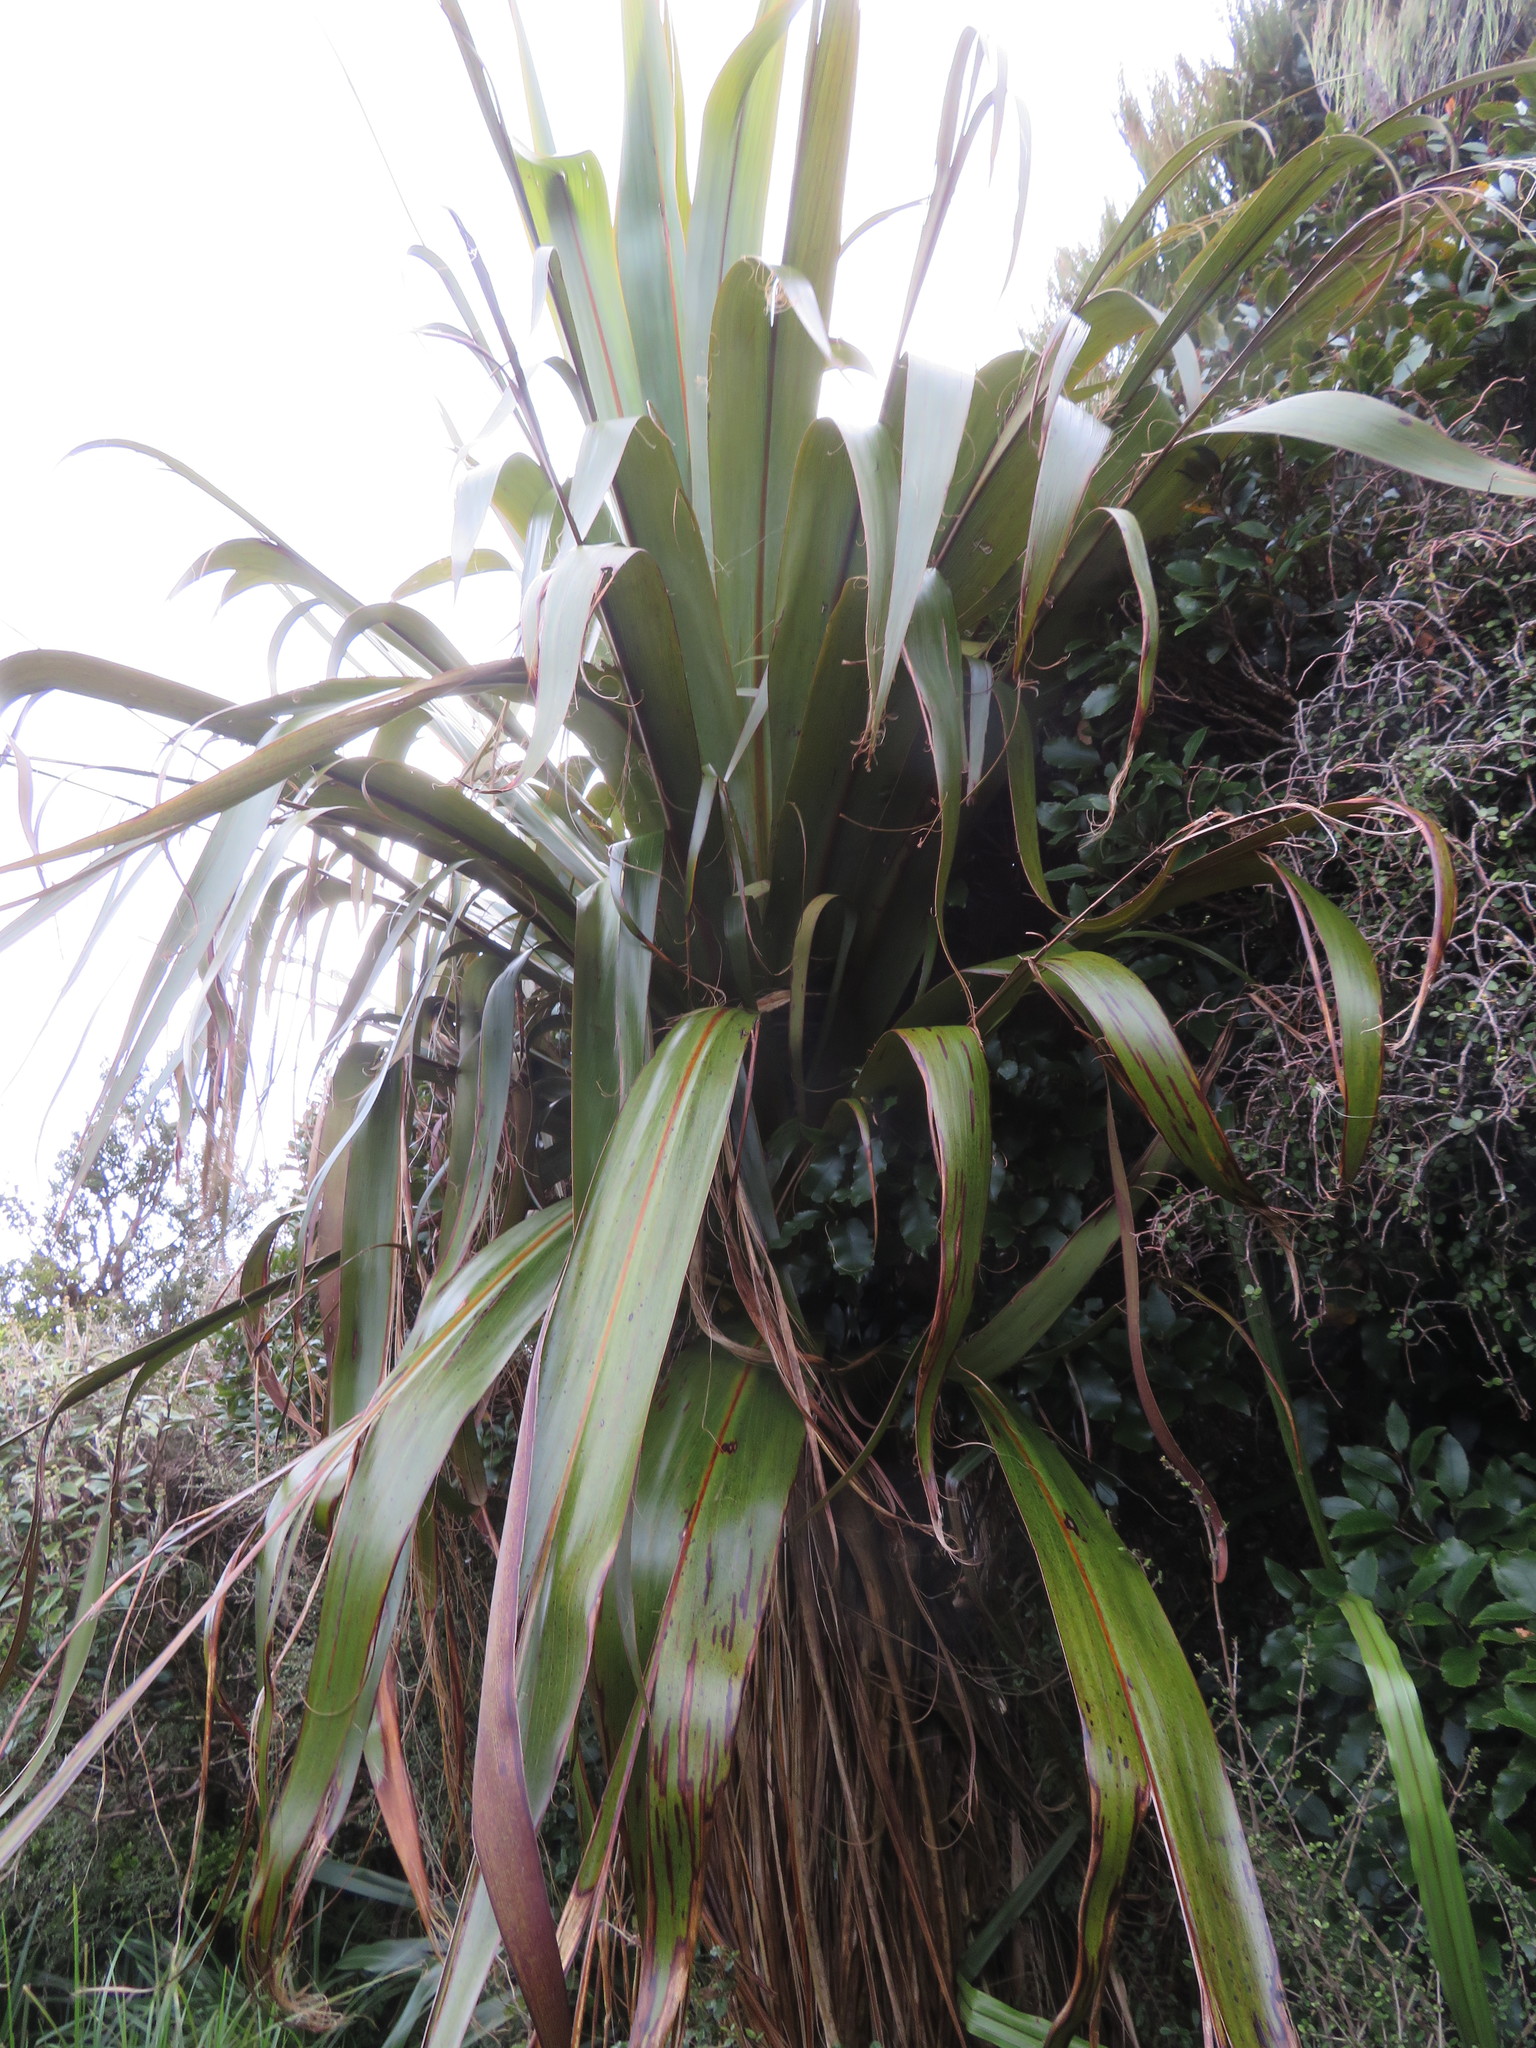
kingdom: Plantae
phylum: Tracheophyta
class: Liliopsida
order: Asparagales
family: Asparagaceae
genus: Cordyline
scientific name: Cordyline indivisa
